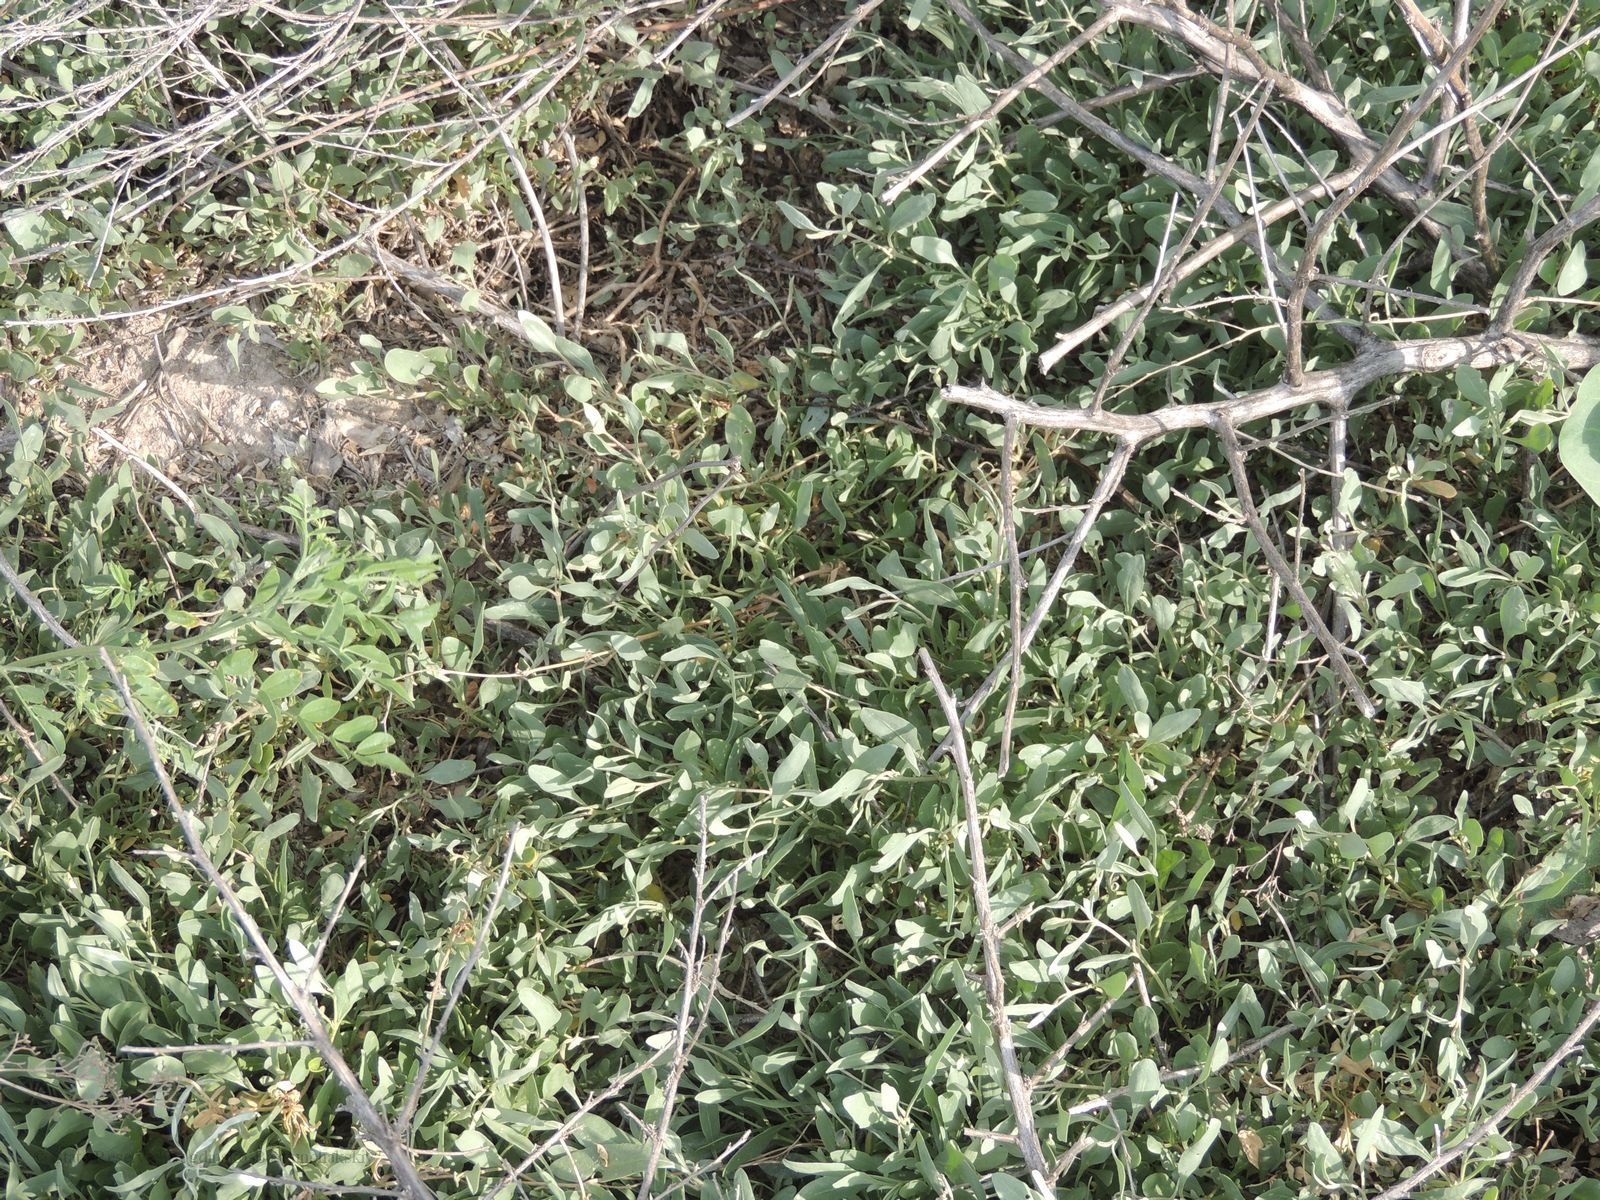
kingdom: Plantae
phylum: Tracheophyta
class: Magnoliopsida
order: Caryophyllales
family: Amaranthaceae
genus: Halimione
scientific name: Halimione verrucifera
